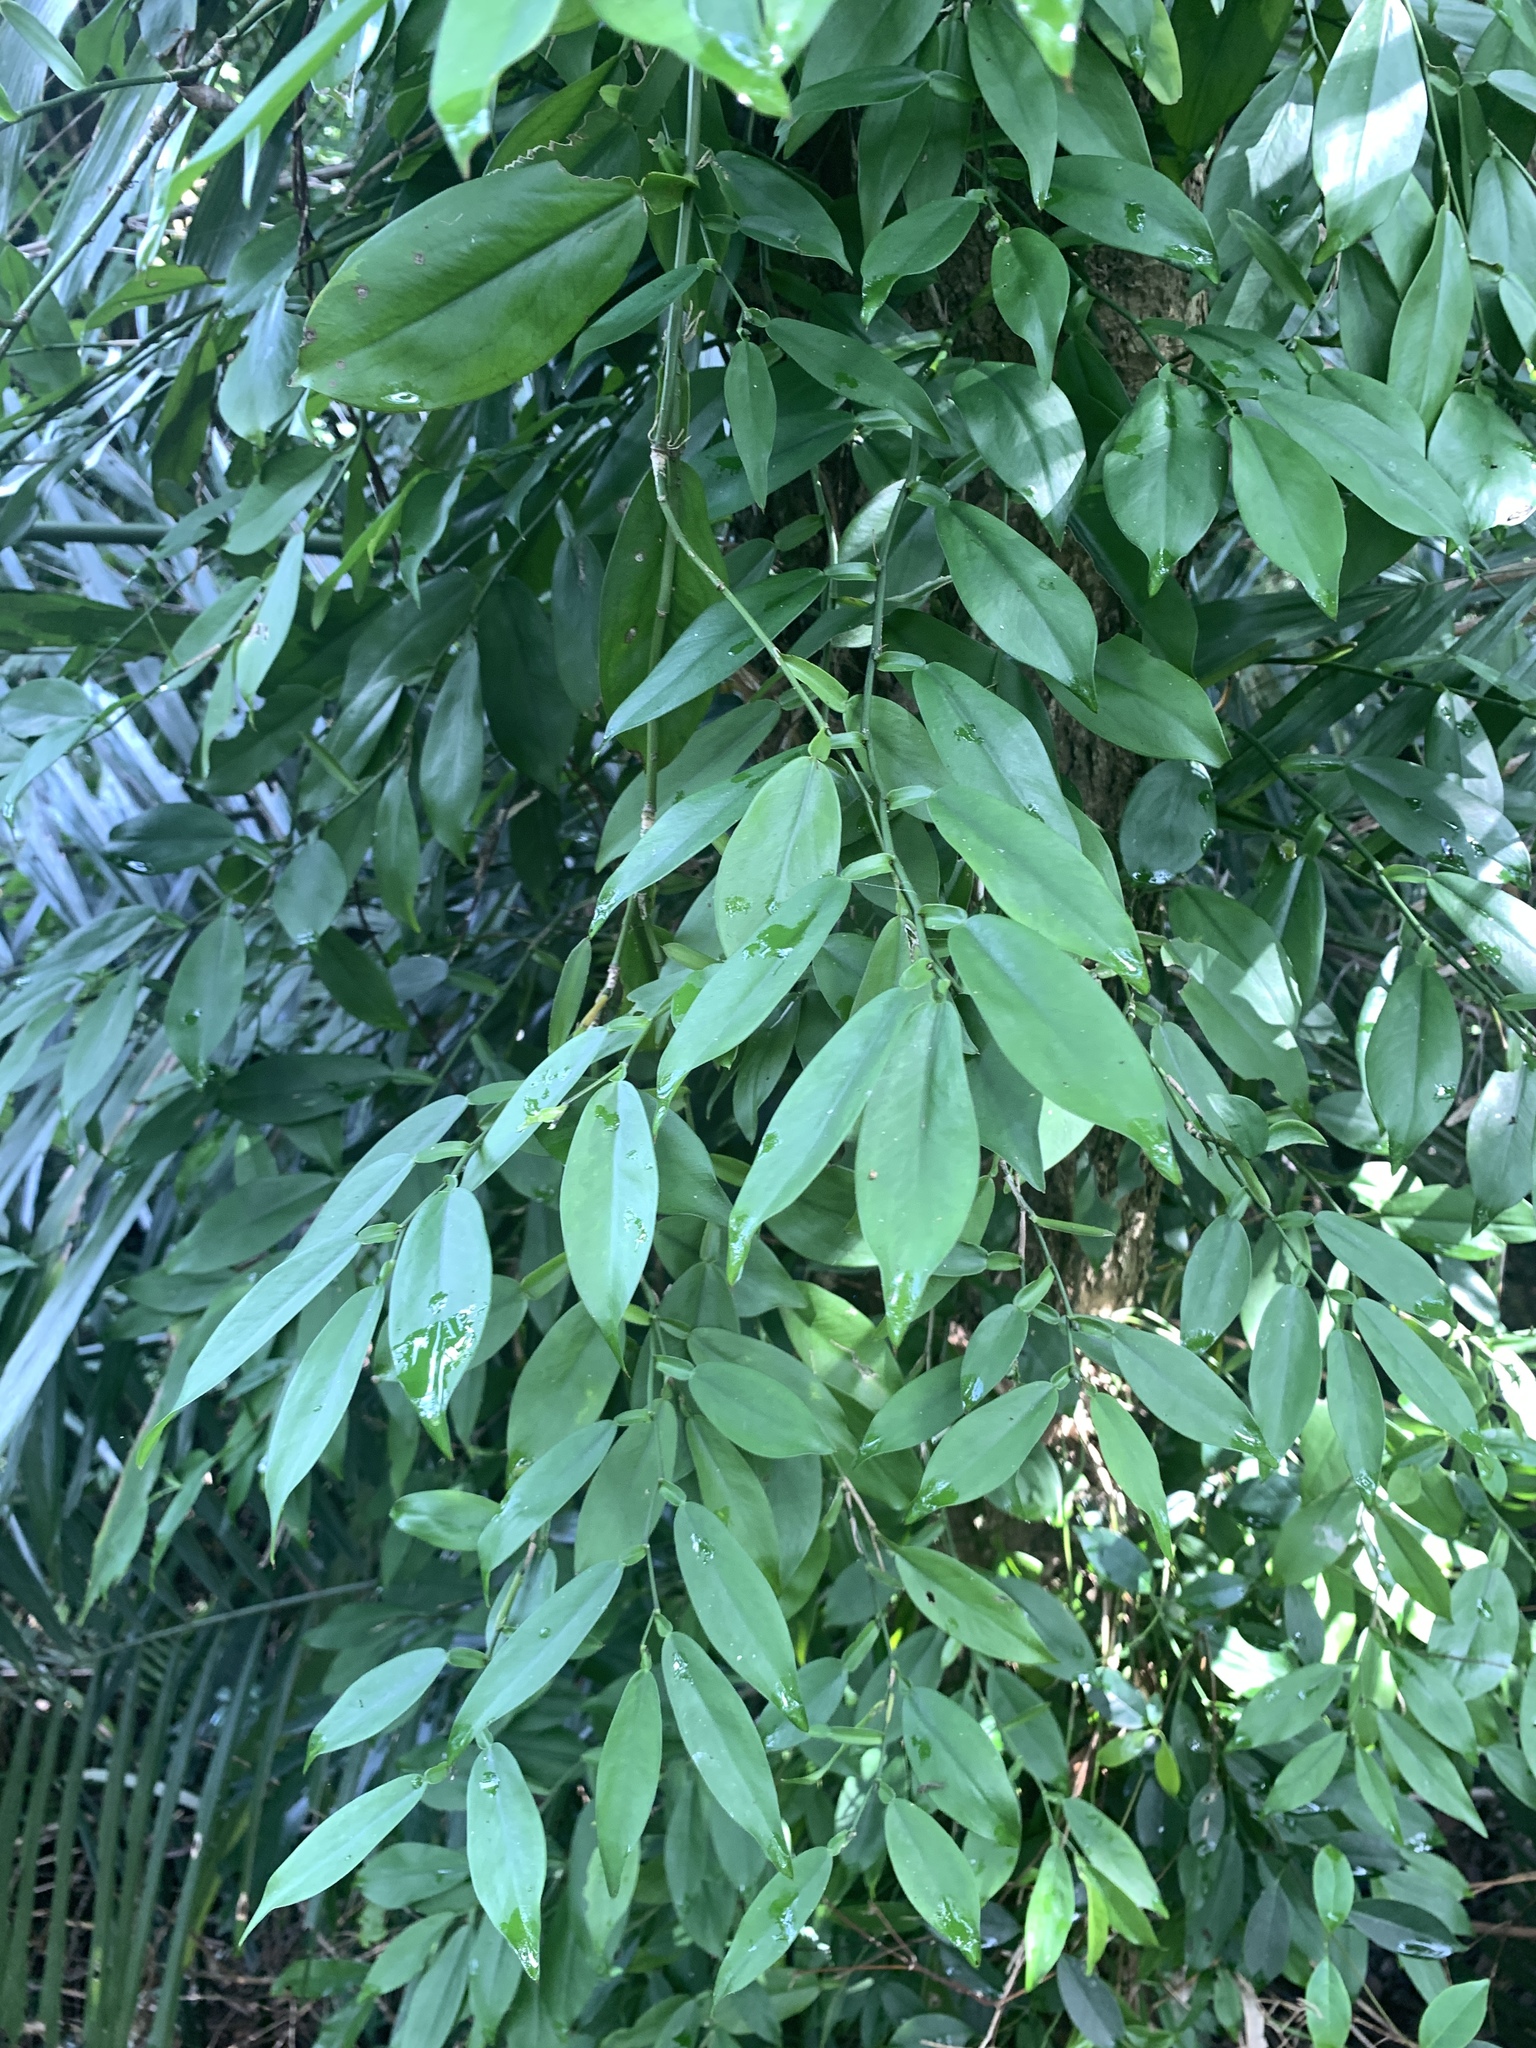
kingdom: Plantae
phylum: Tracheophyta
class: Liliopsida
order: Alismatales
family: Araceae
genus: Pothos
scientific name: Pothos chinensis
